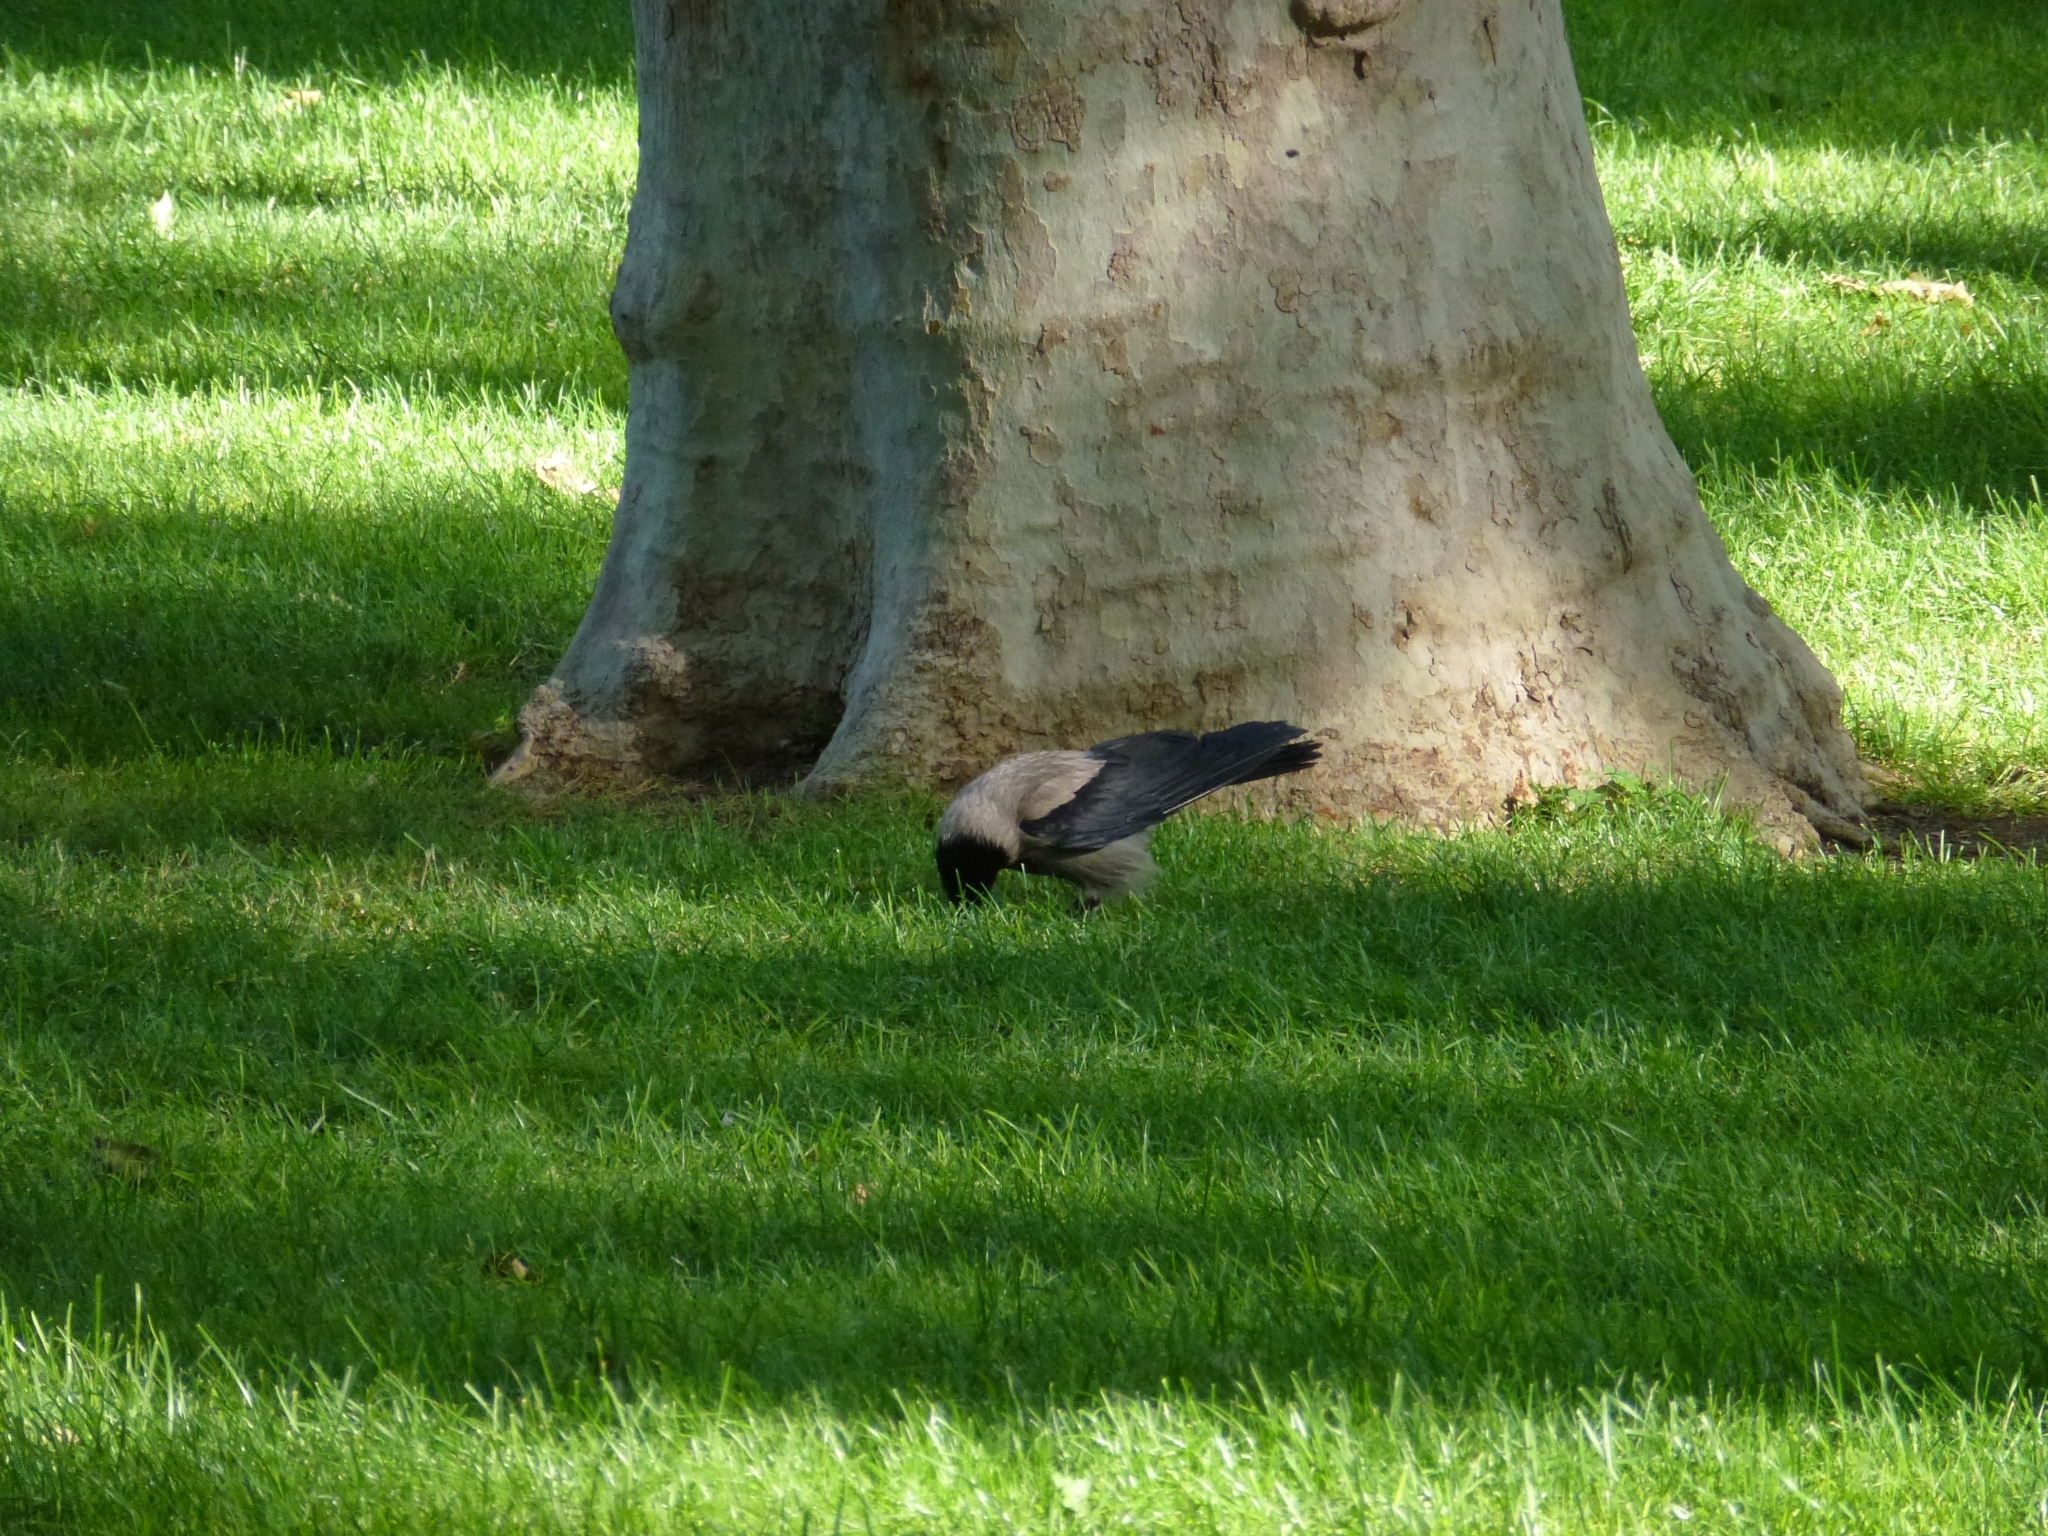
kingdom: Animalia
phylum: Chordata
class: Aves
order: Passeriformes
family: Corvidae
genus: Corvus
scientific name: Corvus cornix
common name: Hooded crow
